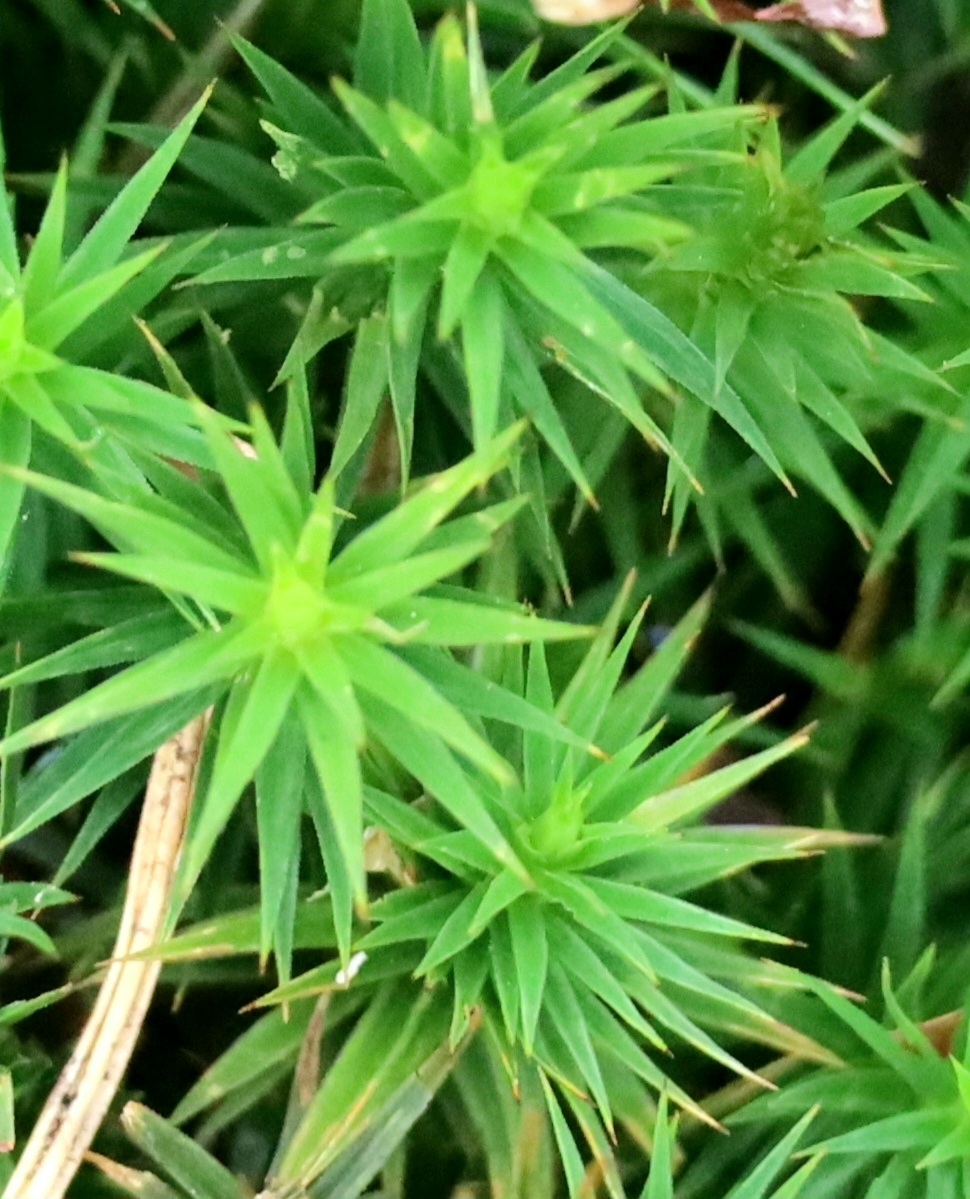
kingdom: Plantae
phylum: Bryophyta
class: Polytrichopsida
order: Polytrichales
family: Polytrichaceae
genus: Polytrichum
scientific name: Polytrichum formosum
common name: Bank haircap moss
